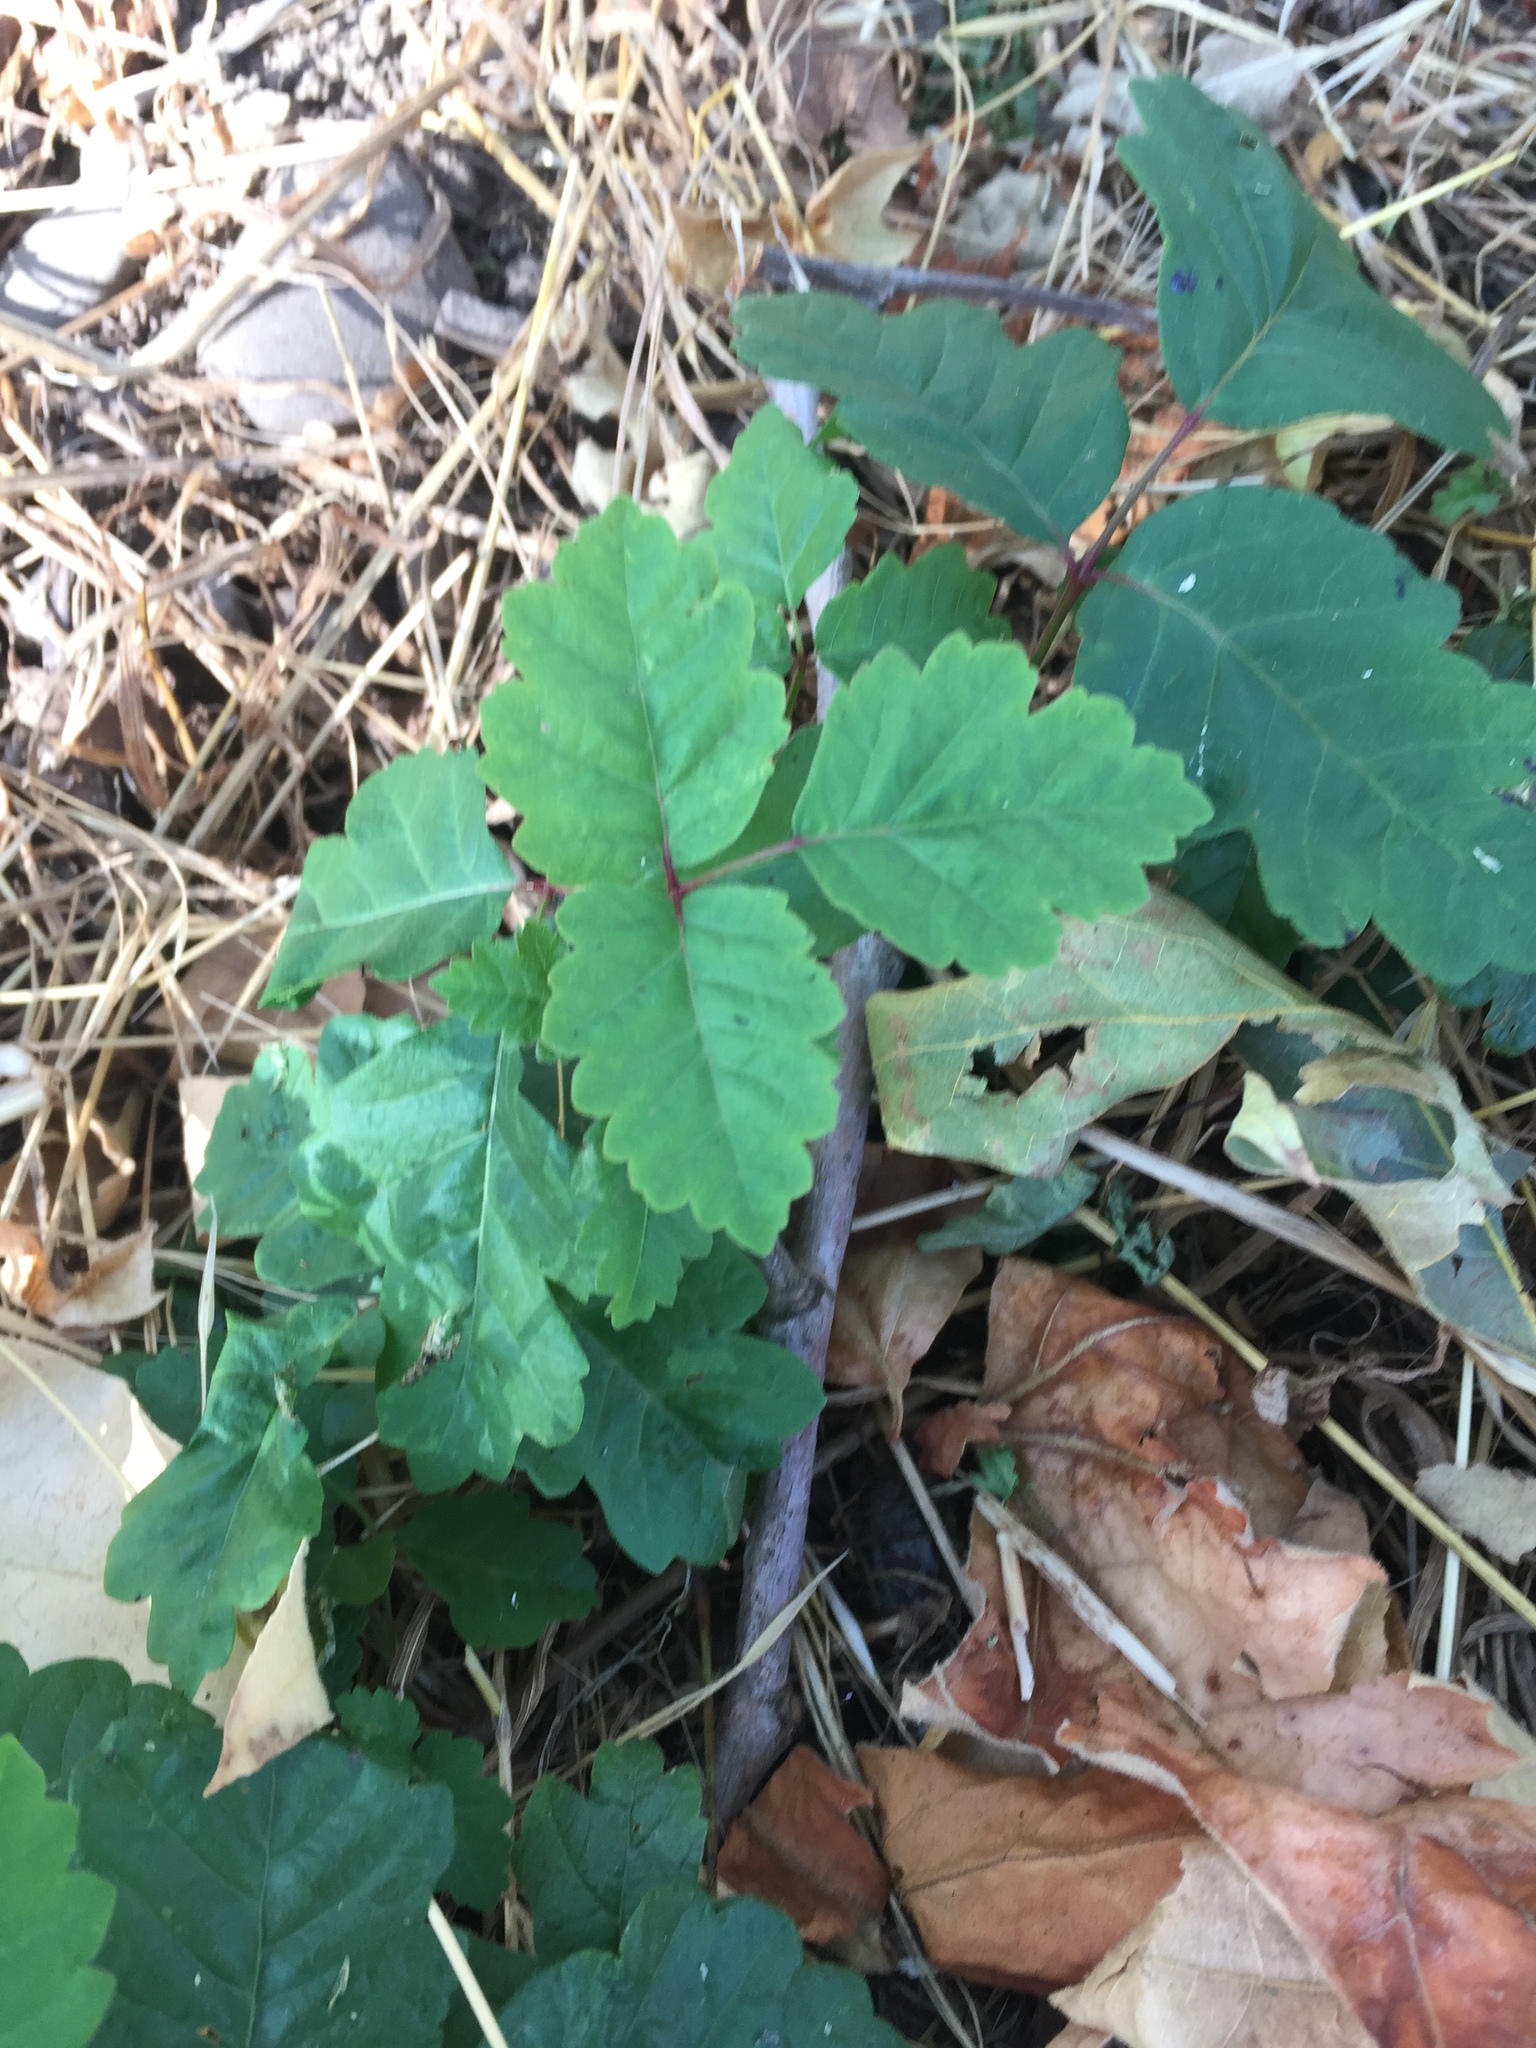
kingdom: Plantae
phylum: Tracheophyta
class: Magnoliopsida
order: Sapindales
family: Anacardiaceae
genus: Toxicodendron
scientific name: Toxicodendron diversilobum
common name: Pacific poison-oak
